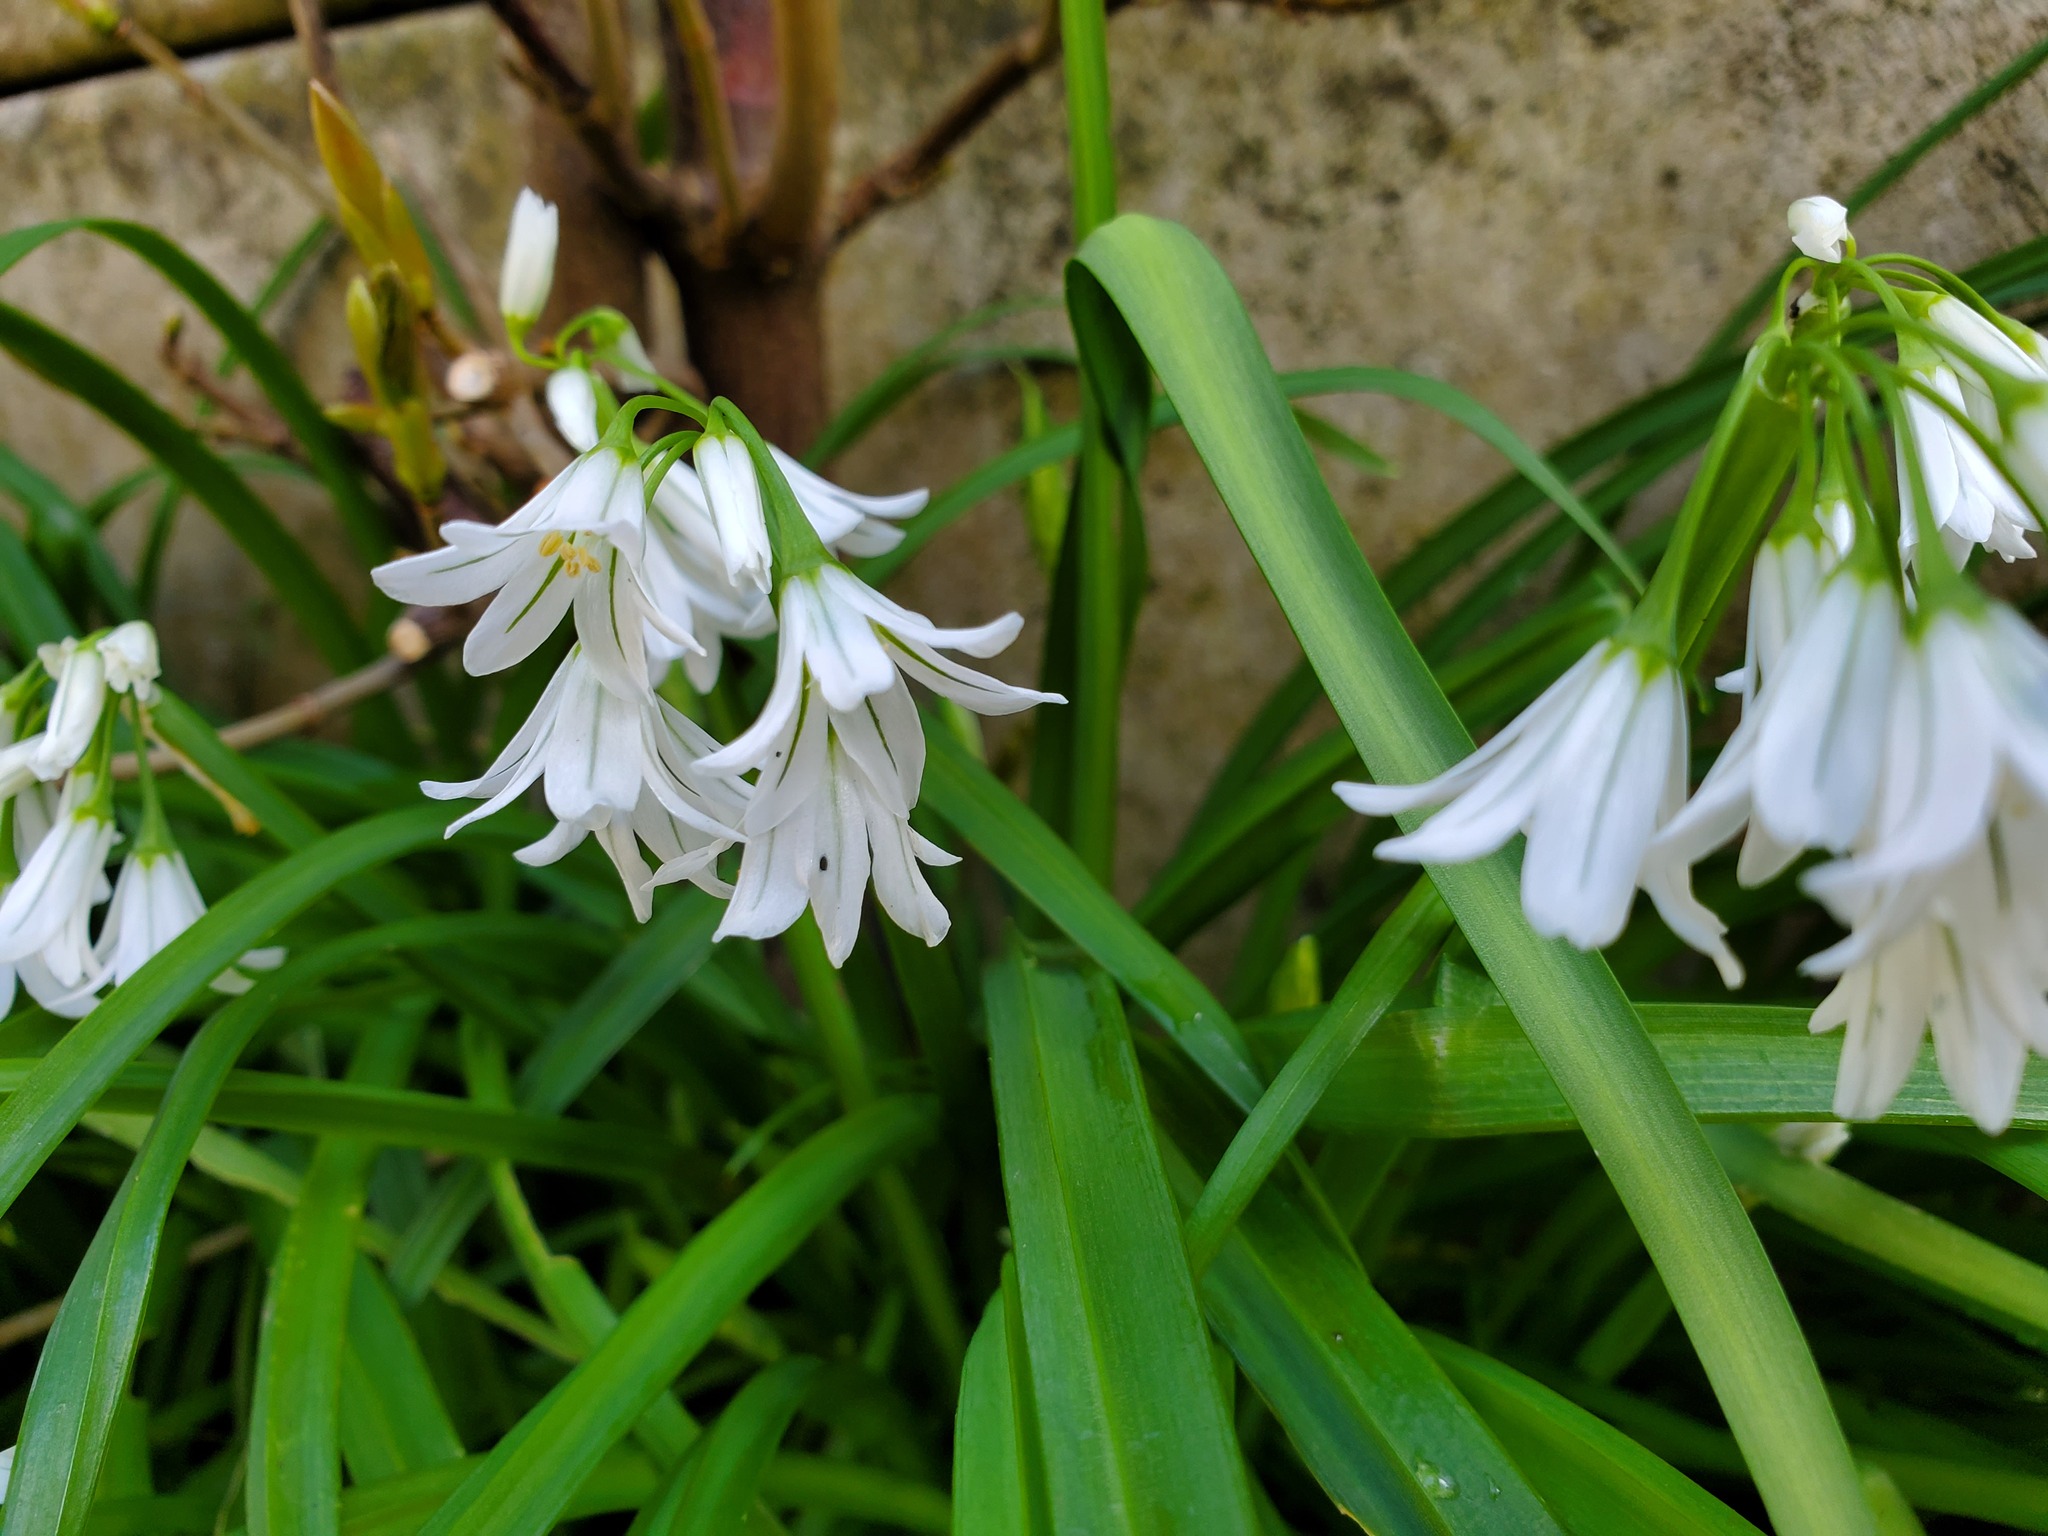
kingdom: Plantae
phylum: Tracheophyta
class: Liliopsida
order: Asparagales
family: Amaryllidaceae
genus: Allium
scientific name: Allium triquetrum
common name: Three-cornered garlic
